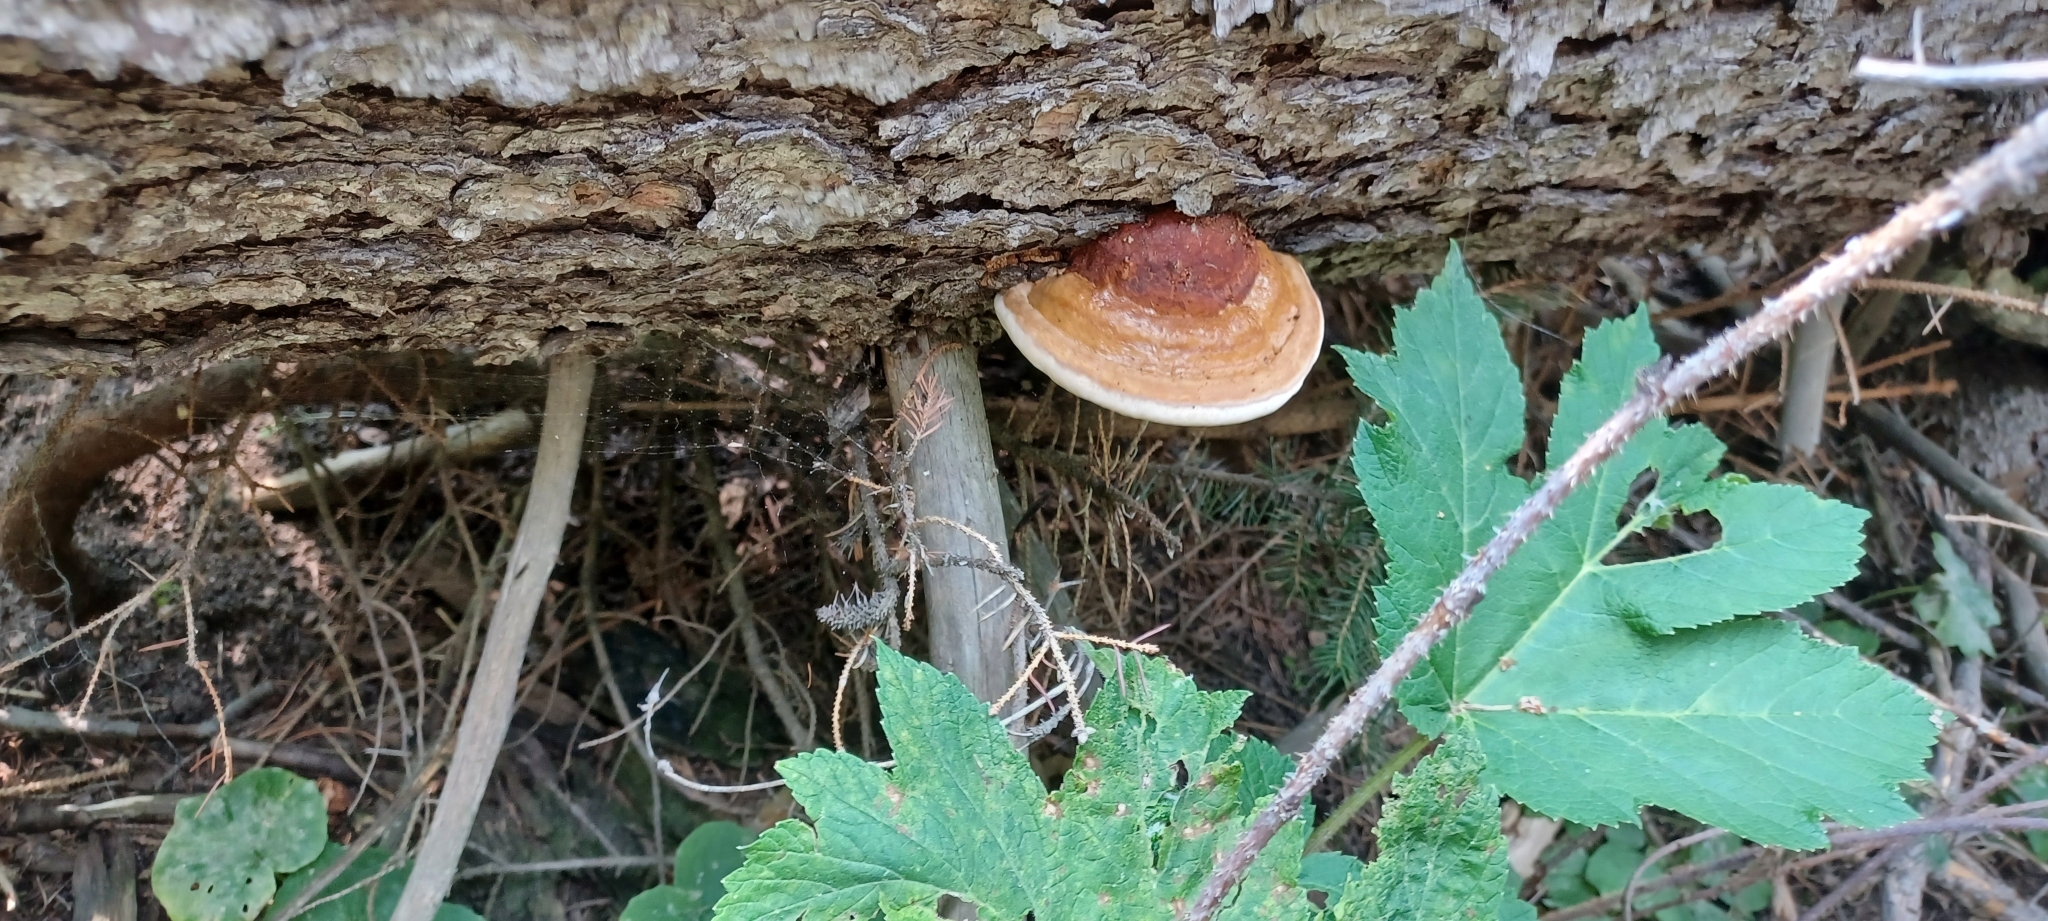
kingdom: Fungi
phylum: Basidiomycota
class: Agaricomycetes
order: Polyporales
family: Fomitopsidaceae
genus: Fomitopsis
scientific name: Fomitopsis schrenkii
